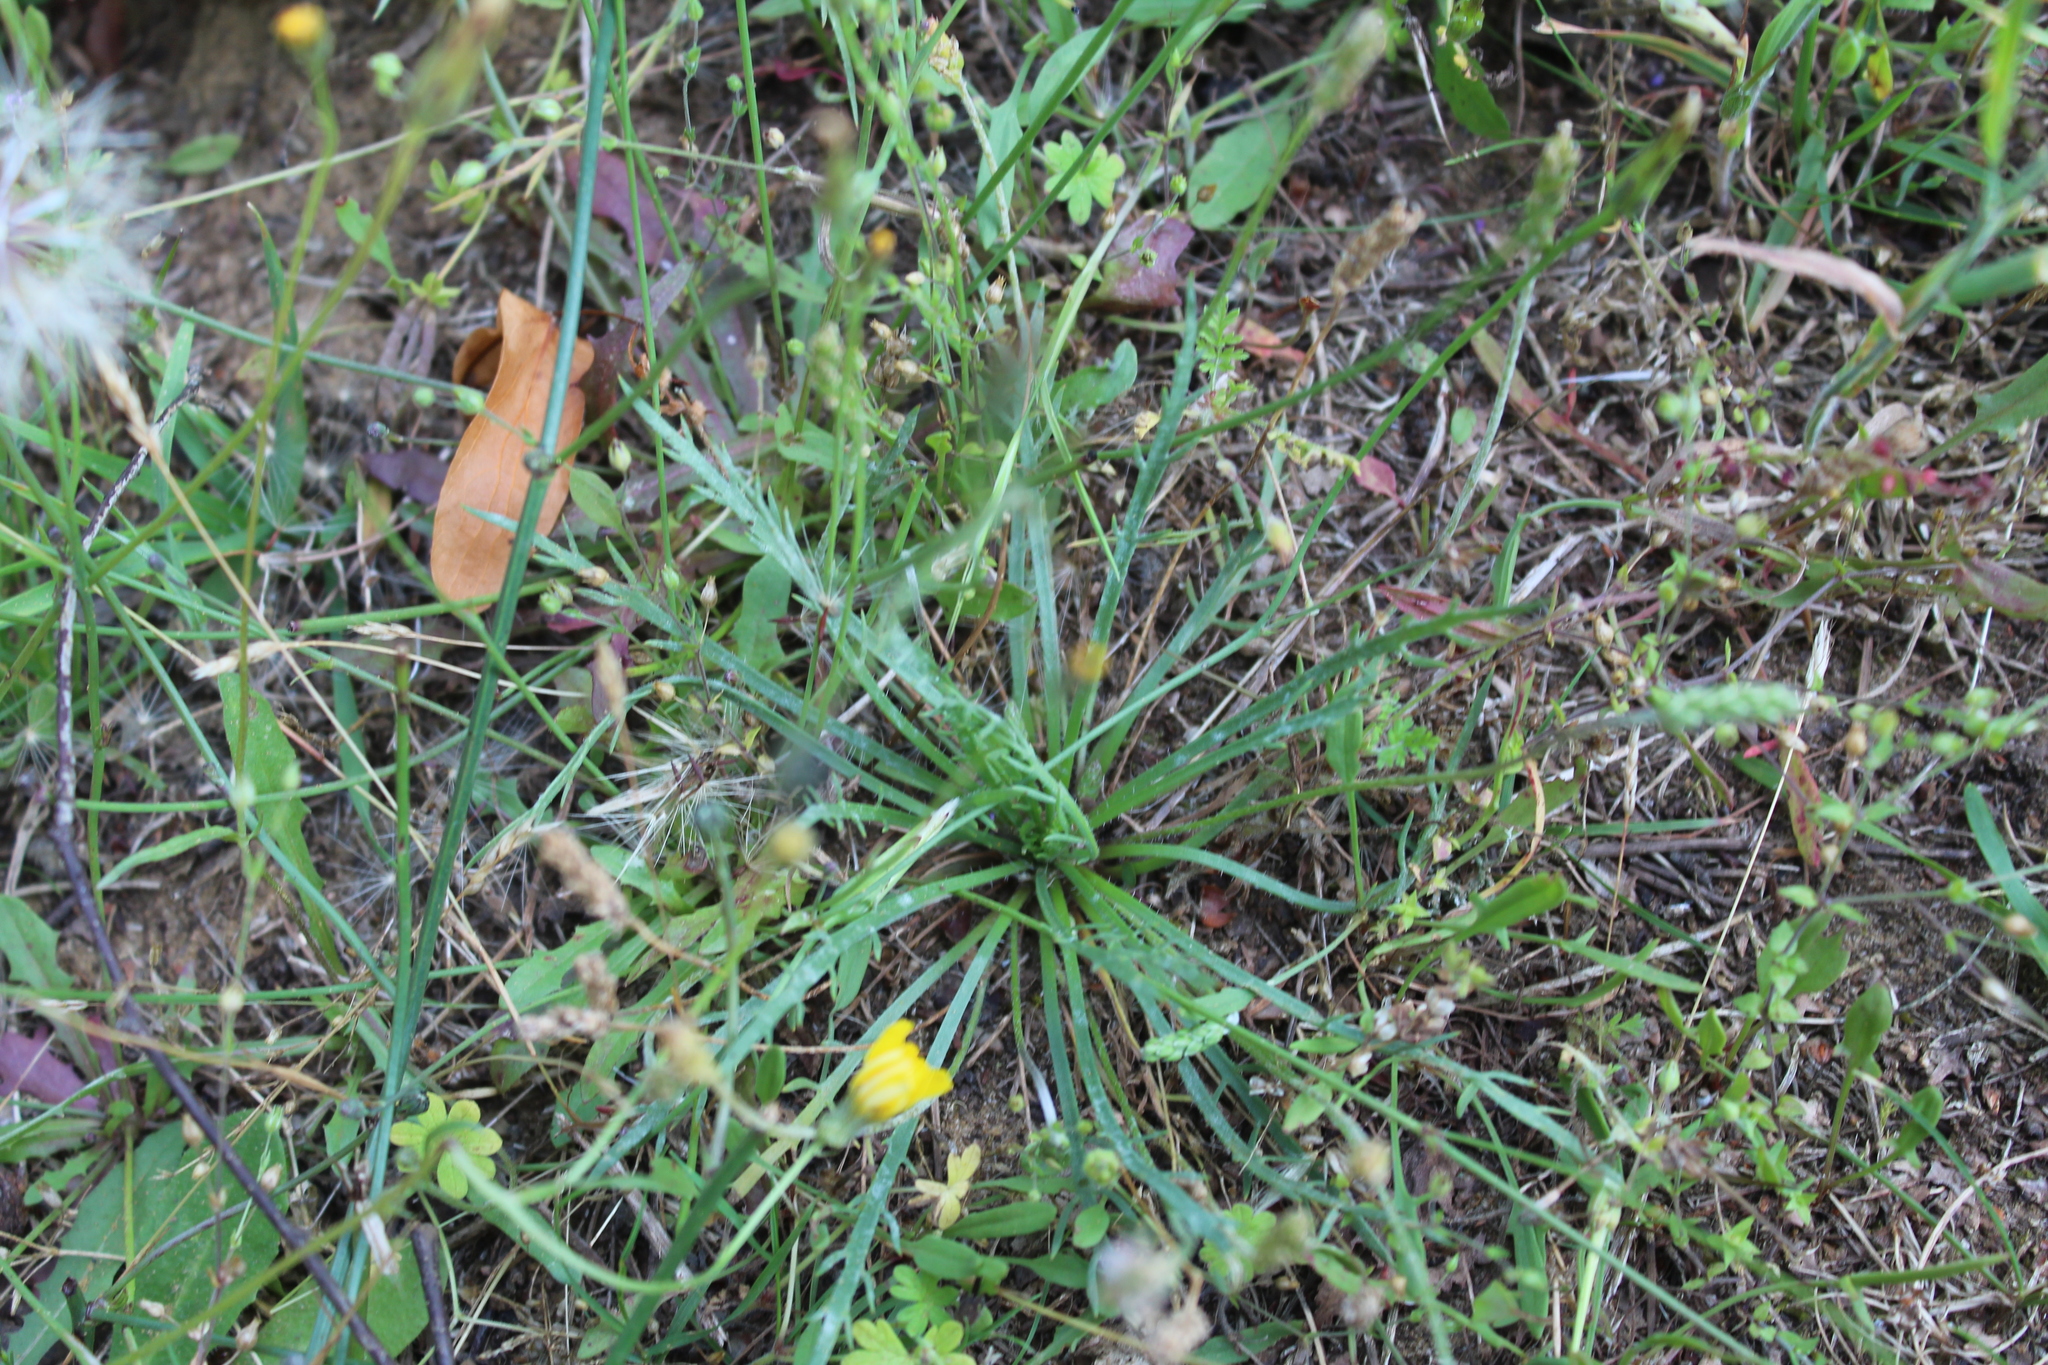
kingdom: Plantae
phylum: Tracheophyta
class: Magnoliopsida
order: Lamiales
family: Plantaginaceae
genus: Plantago
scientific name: Plantago coronopus
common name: Buck's-horn plantain
